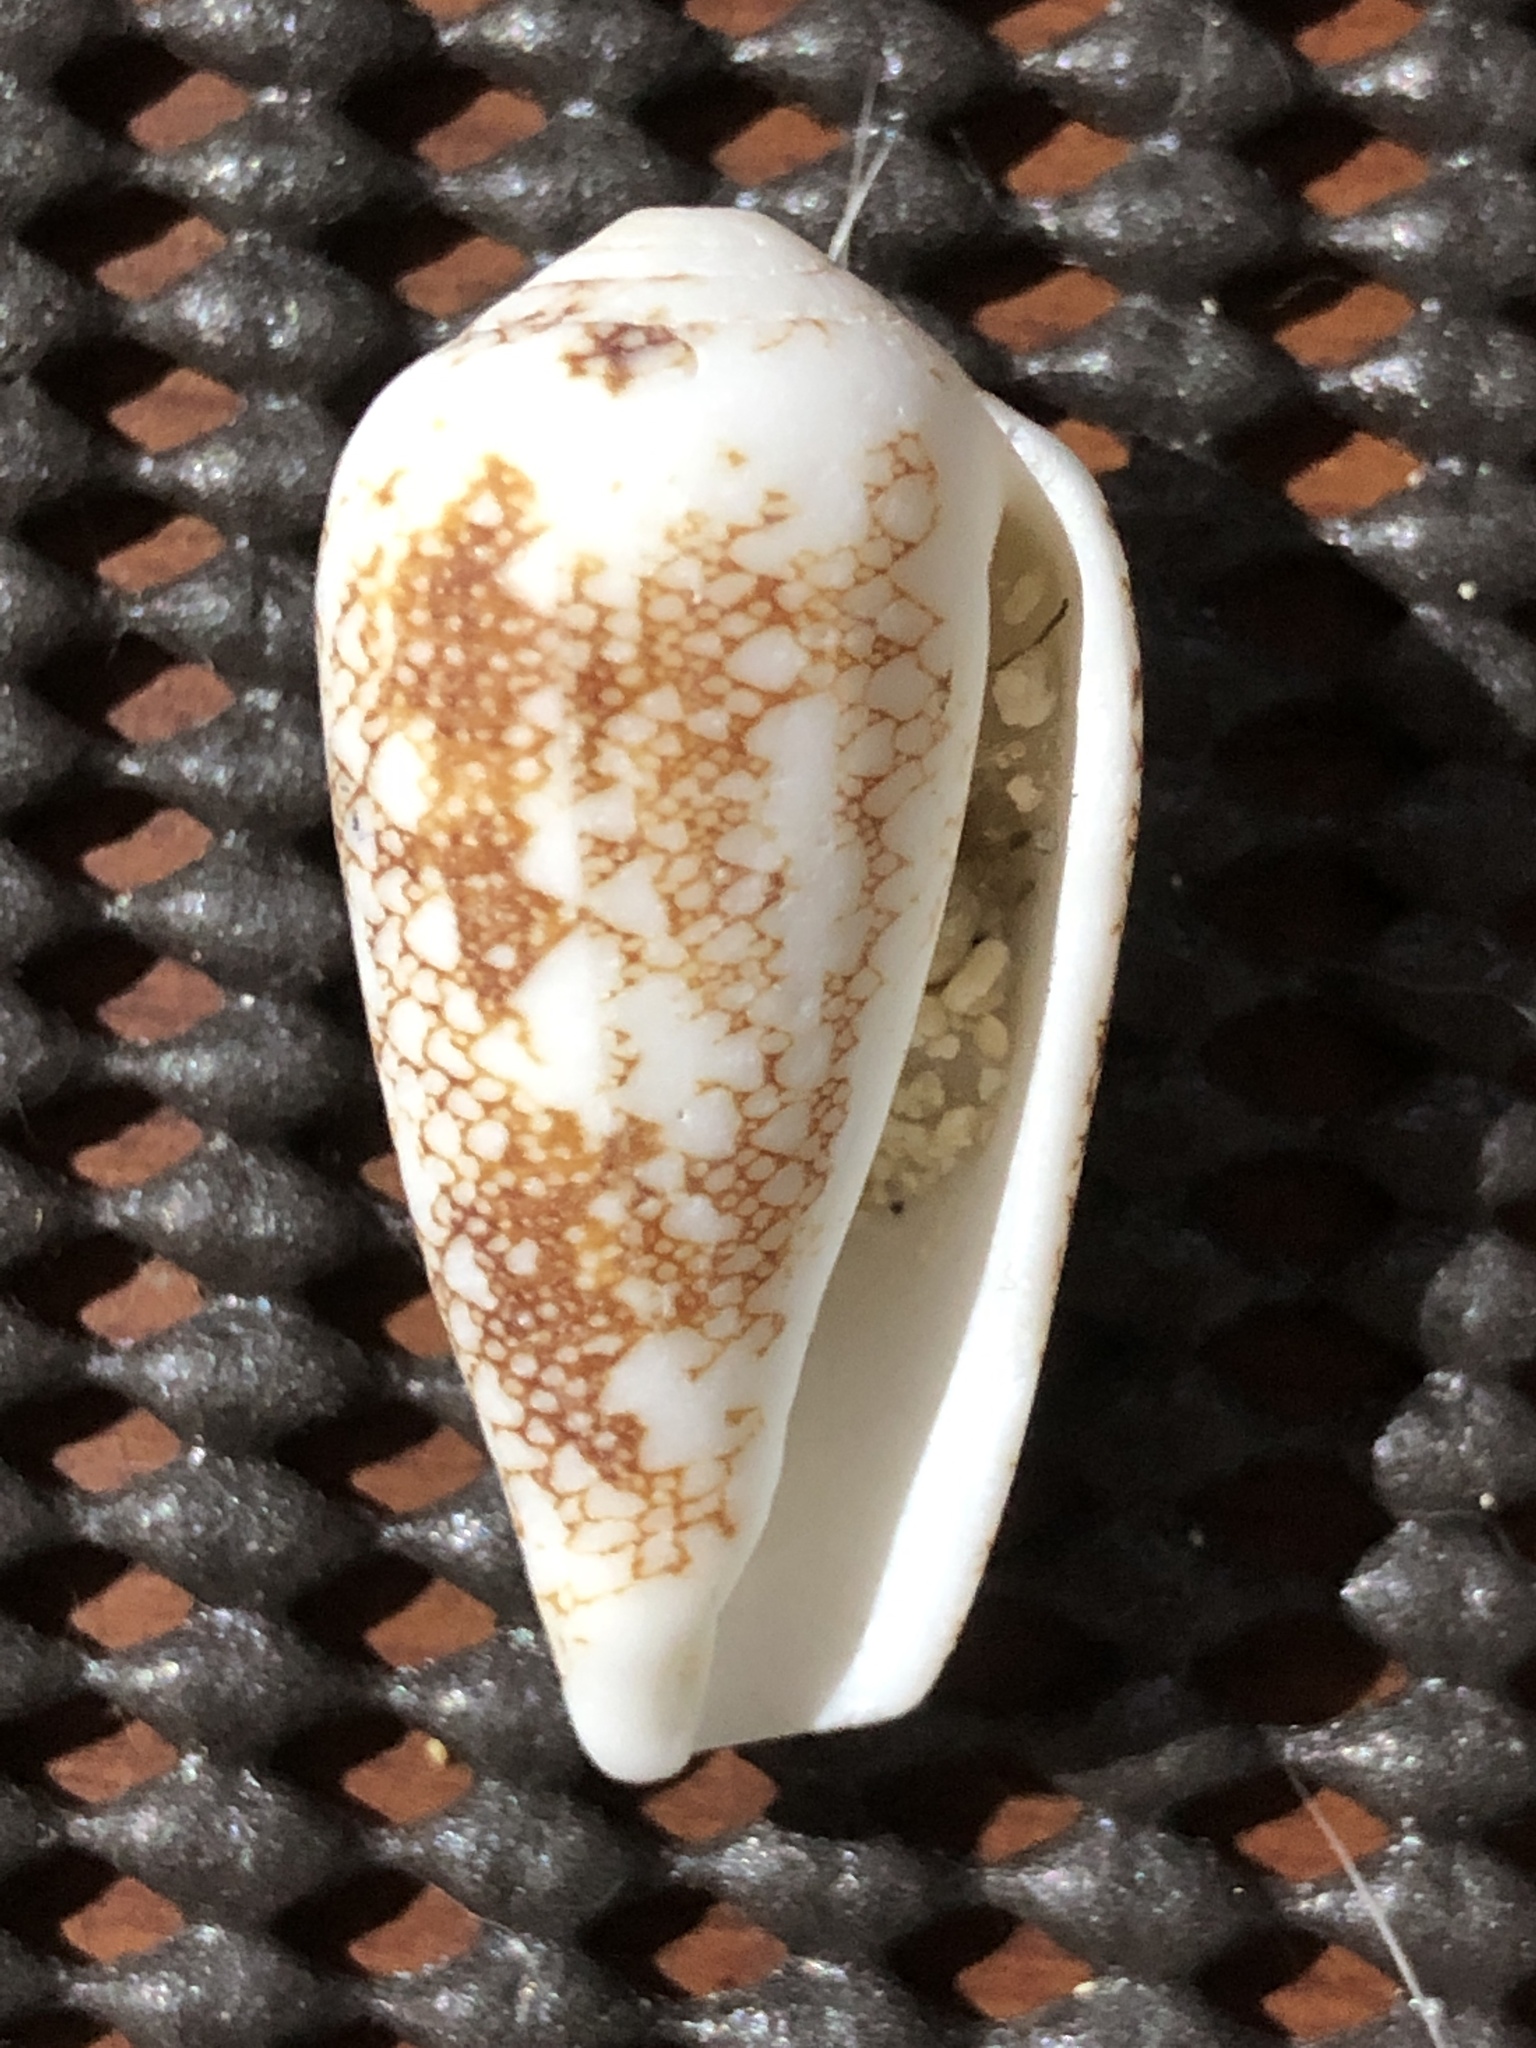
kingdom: Animalia
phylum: Mollusca
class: Gastropoda
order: Neogastropoda
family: Conidae
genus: Conus
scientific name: Conus omaria
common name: Omaria cone
